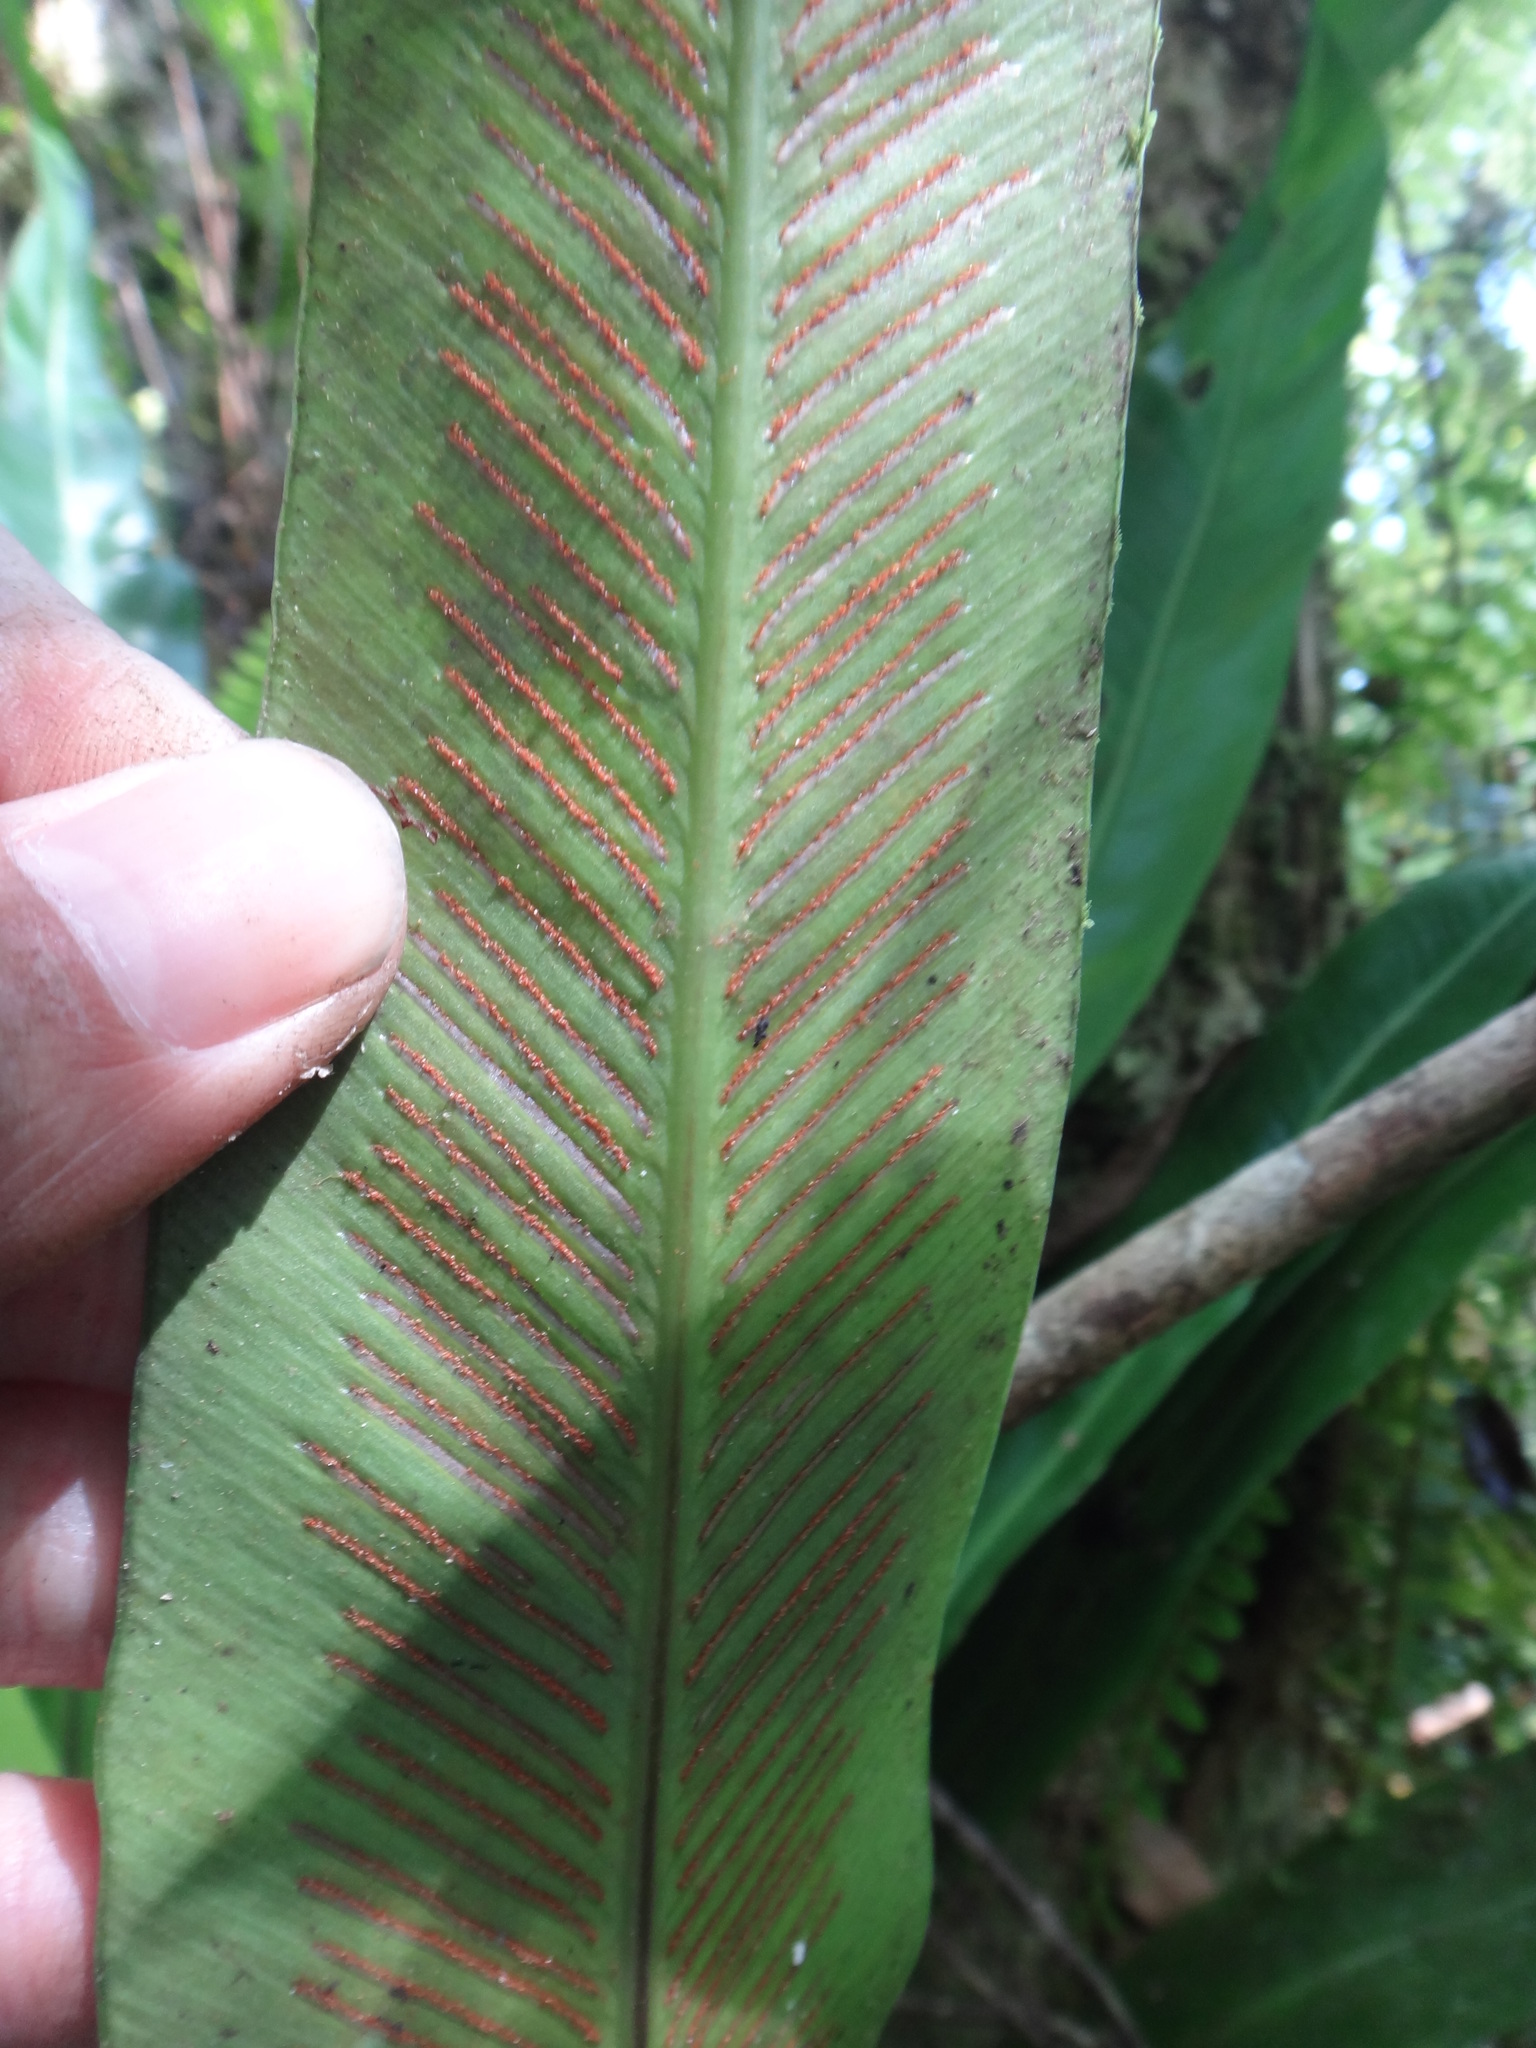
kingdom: Plantae
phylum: Tracheophyta
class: Polypodiopsida
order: Polypodiales
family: Aspleniaceae
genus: Asplenium
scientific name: Asplenium nidus
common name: Bird's-nest fern
